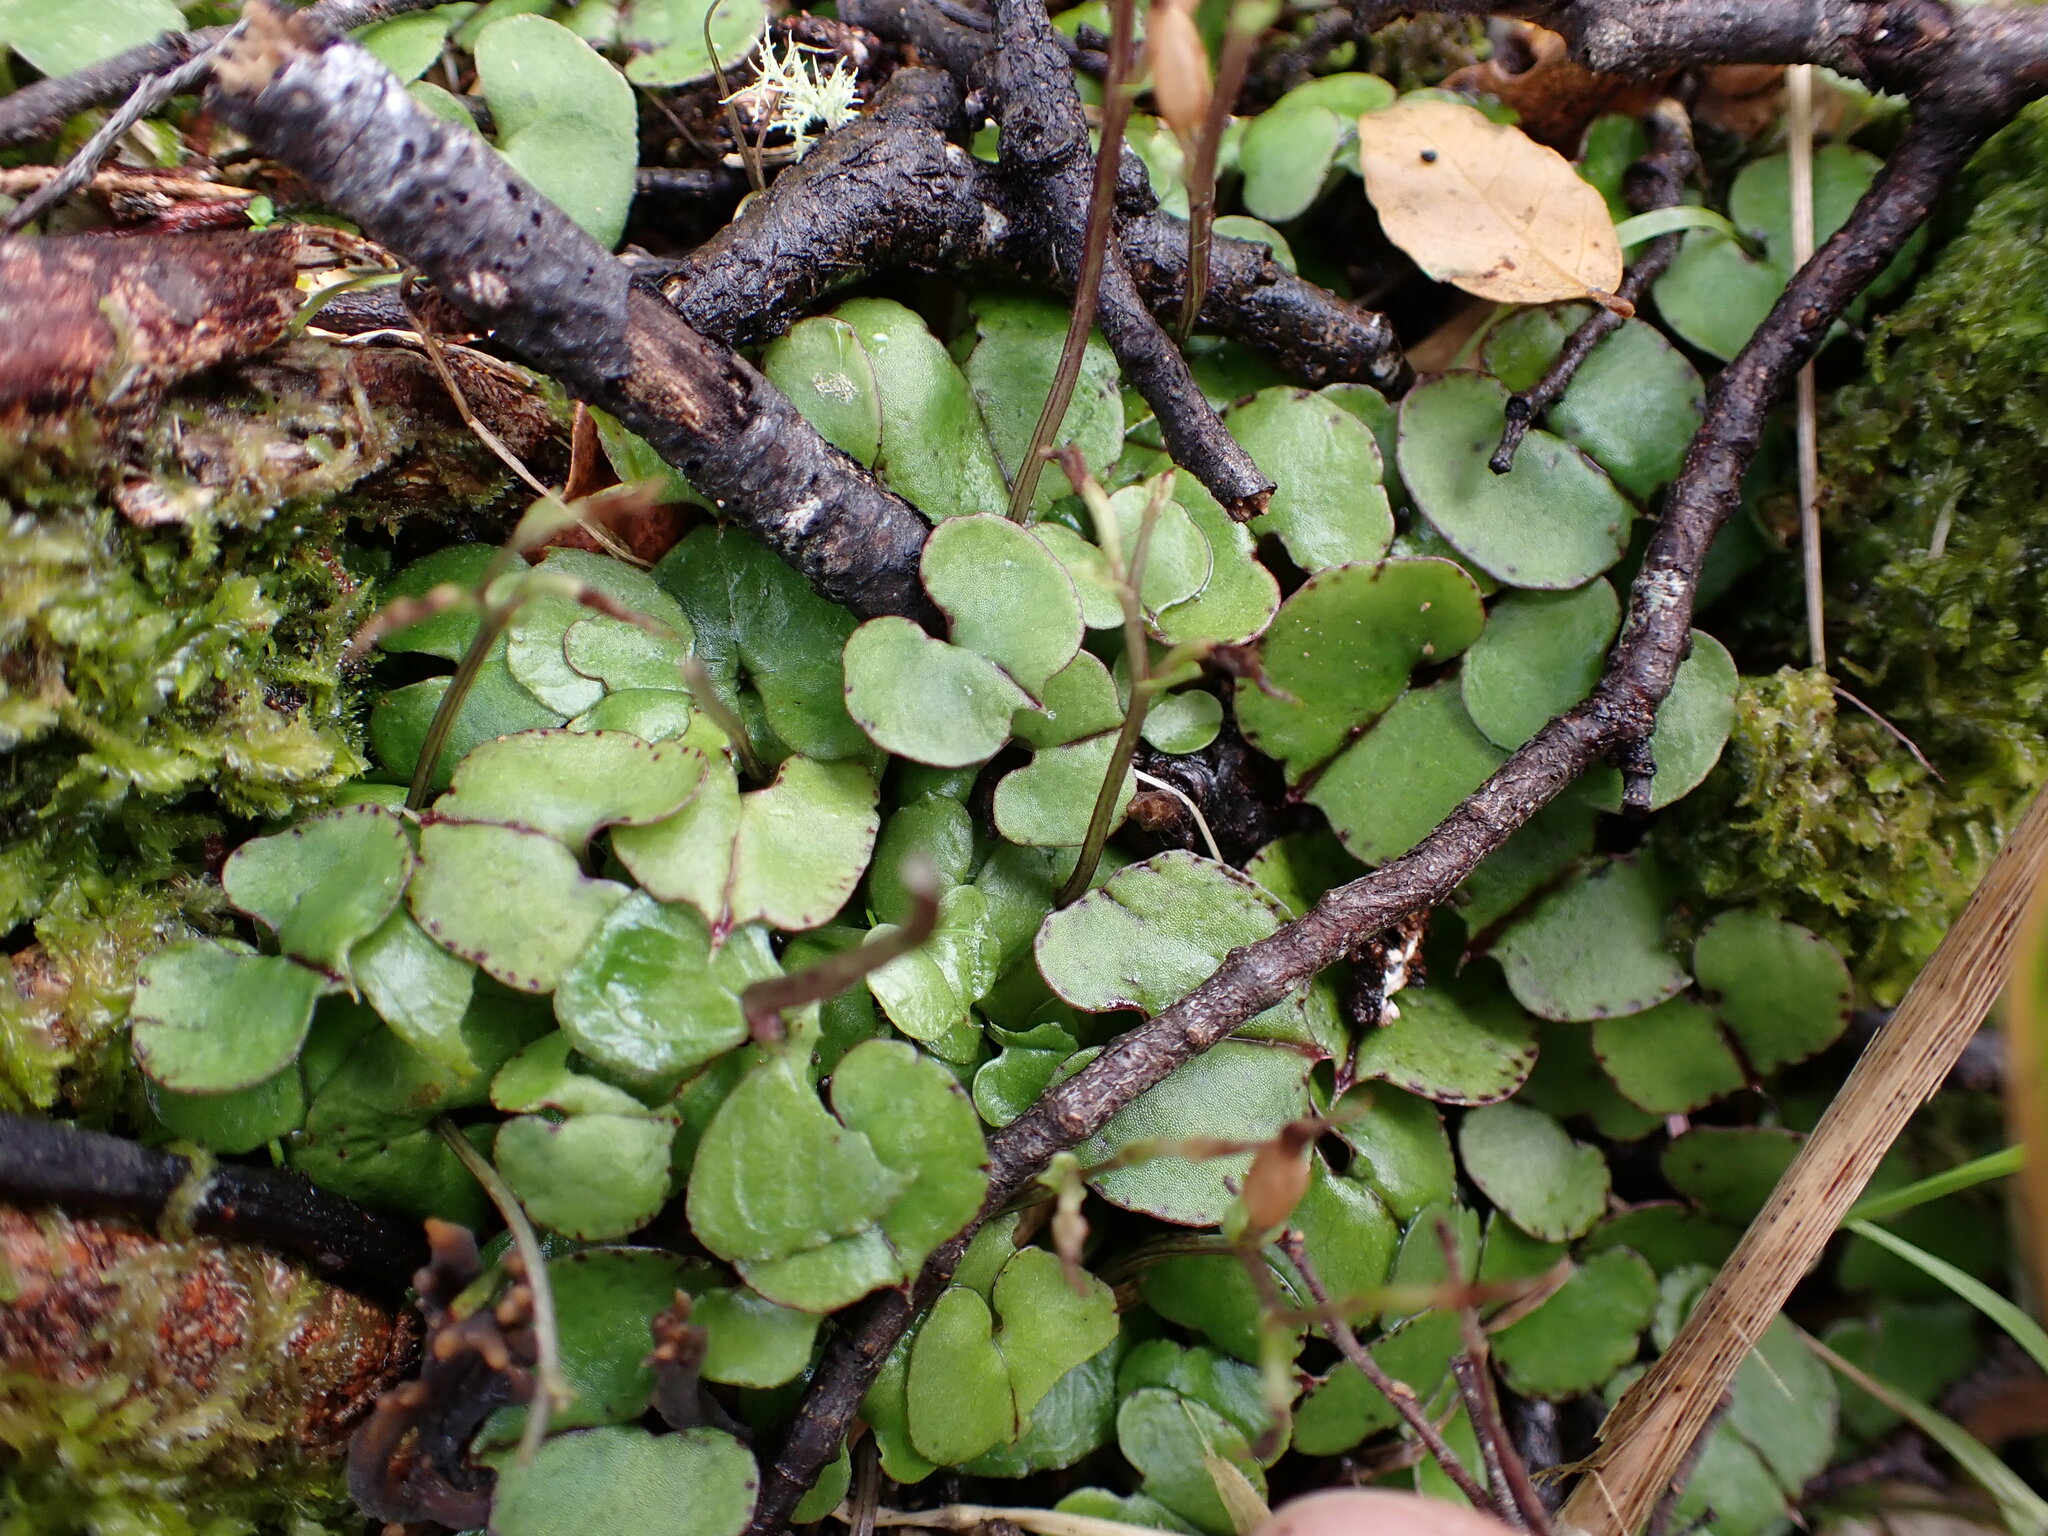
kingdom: Plantae
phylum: Tracheophyta
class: Liliopsida
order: Asparagales
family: Orchidaceae
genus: Acianthus
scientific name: Acianthus sinclairii
